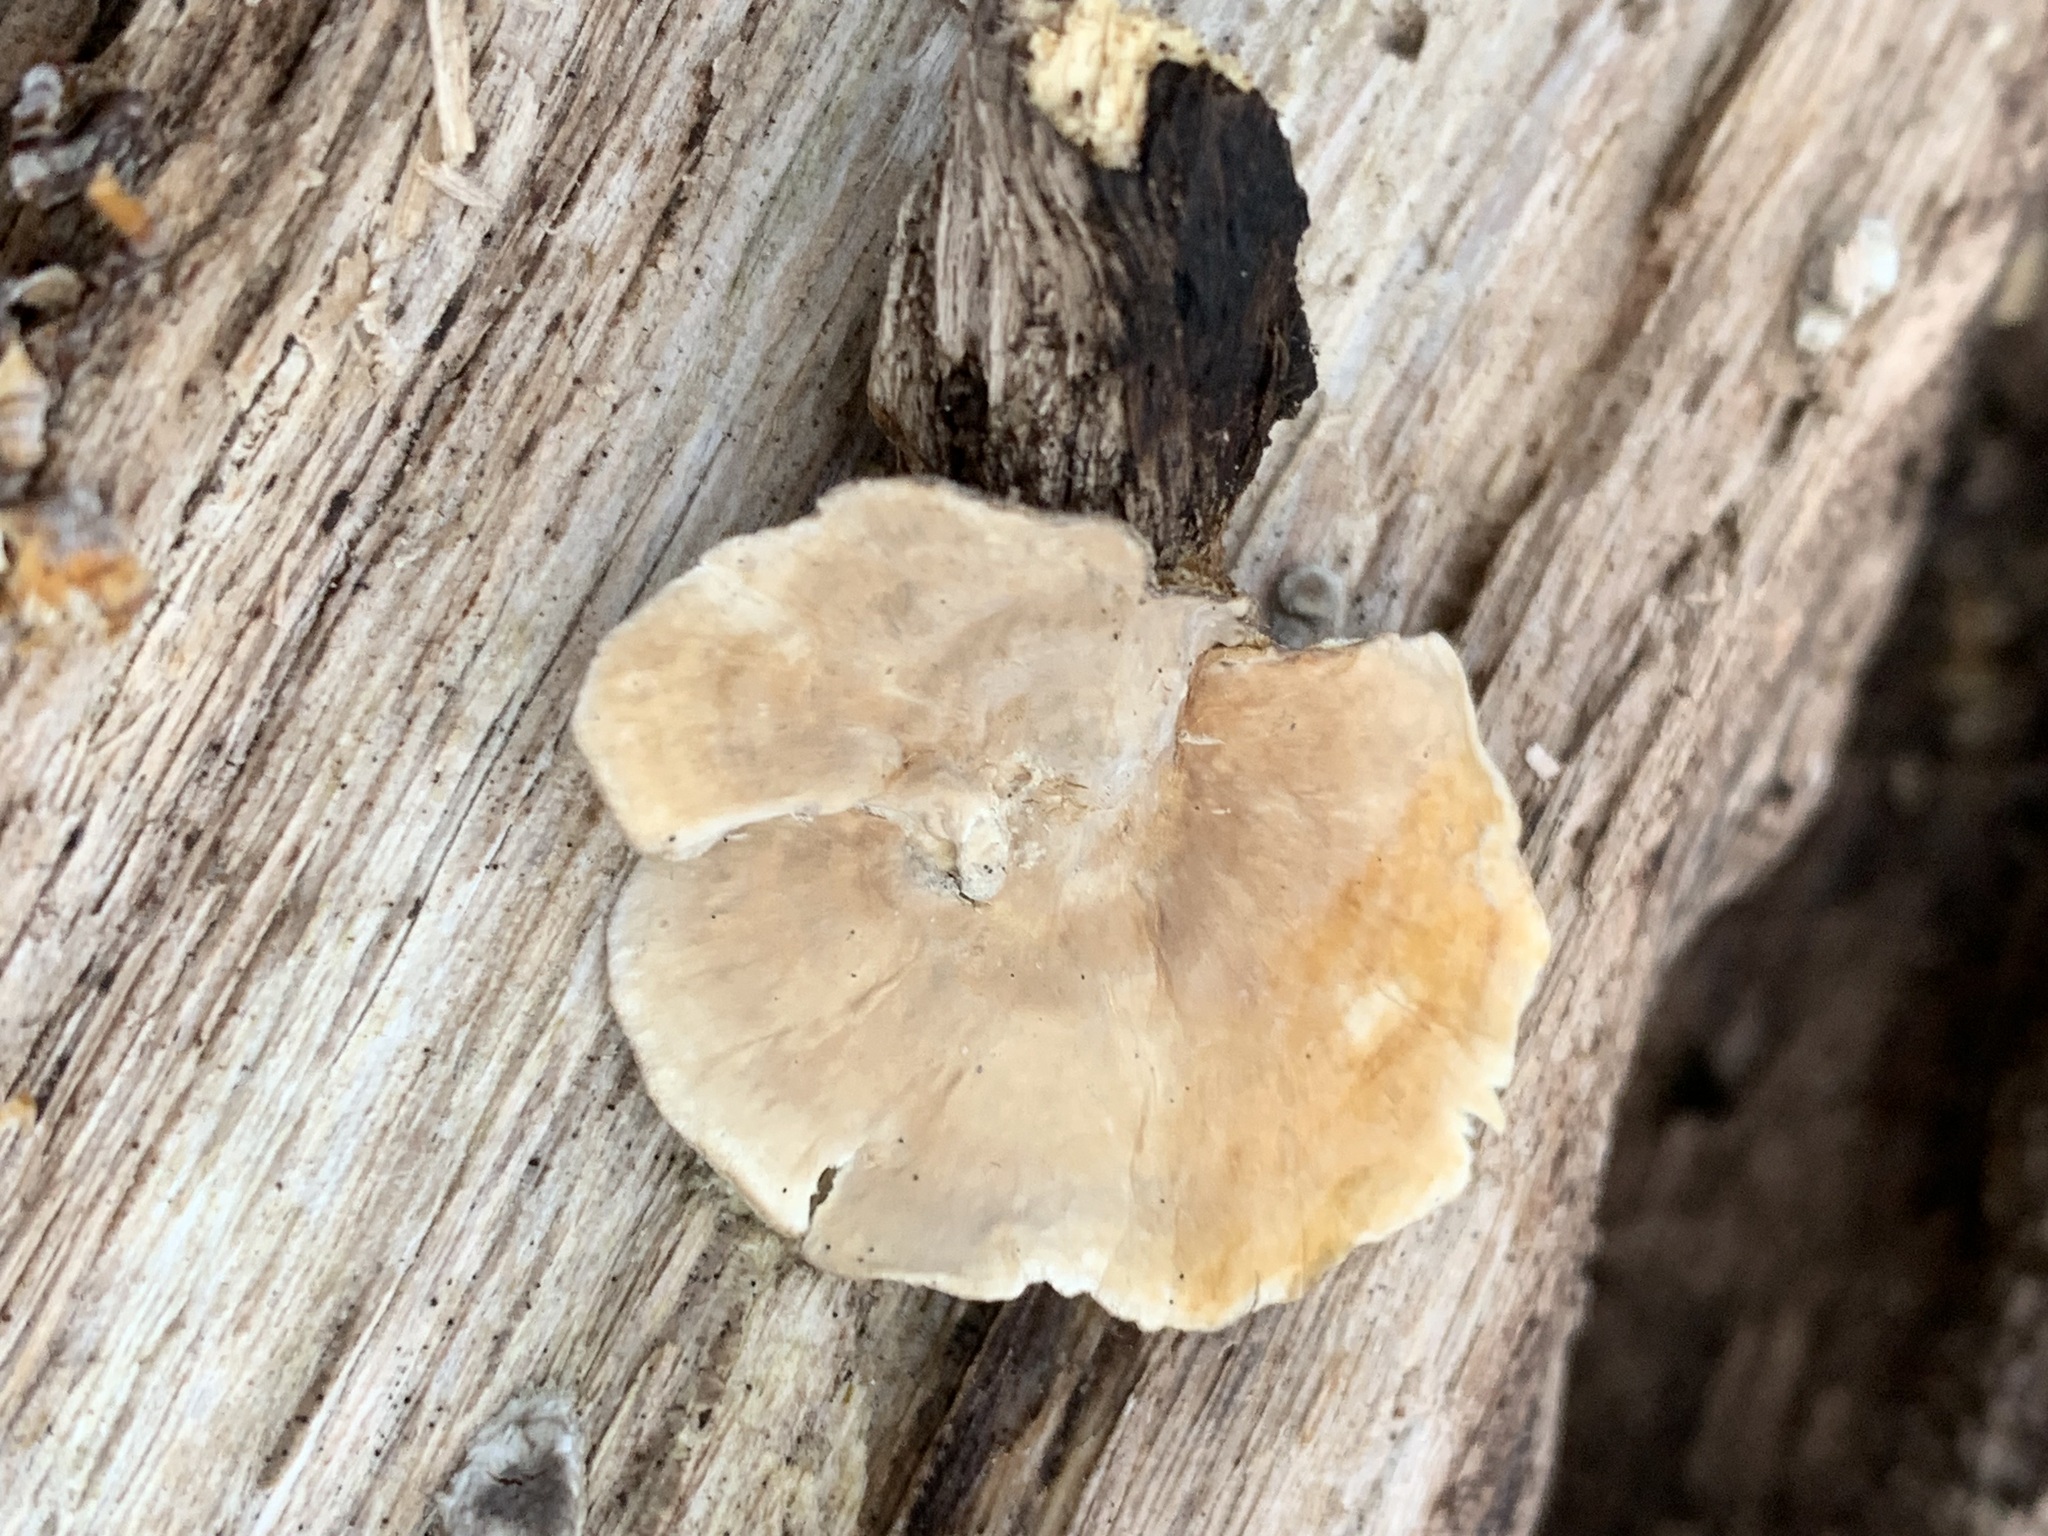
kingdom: Fungi
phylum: Basidiomycota
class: Agaricomycetes
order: Russulales
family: Stereaceae
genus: Stereum
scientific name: Stereum ostrea
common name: False turkeytail
